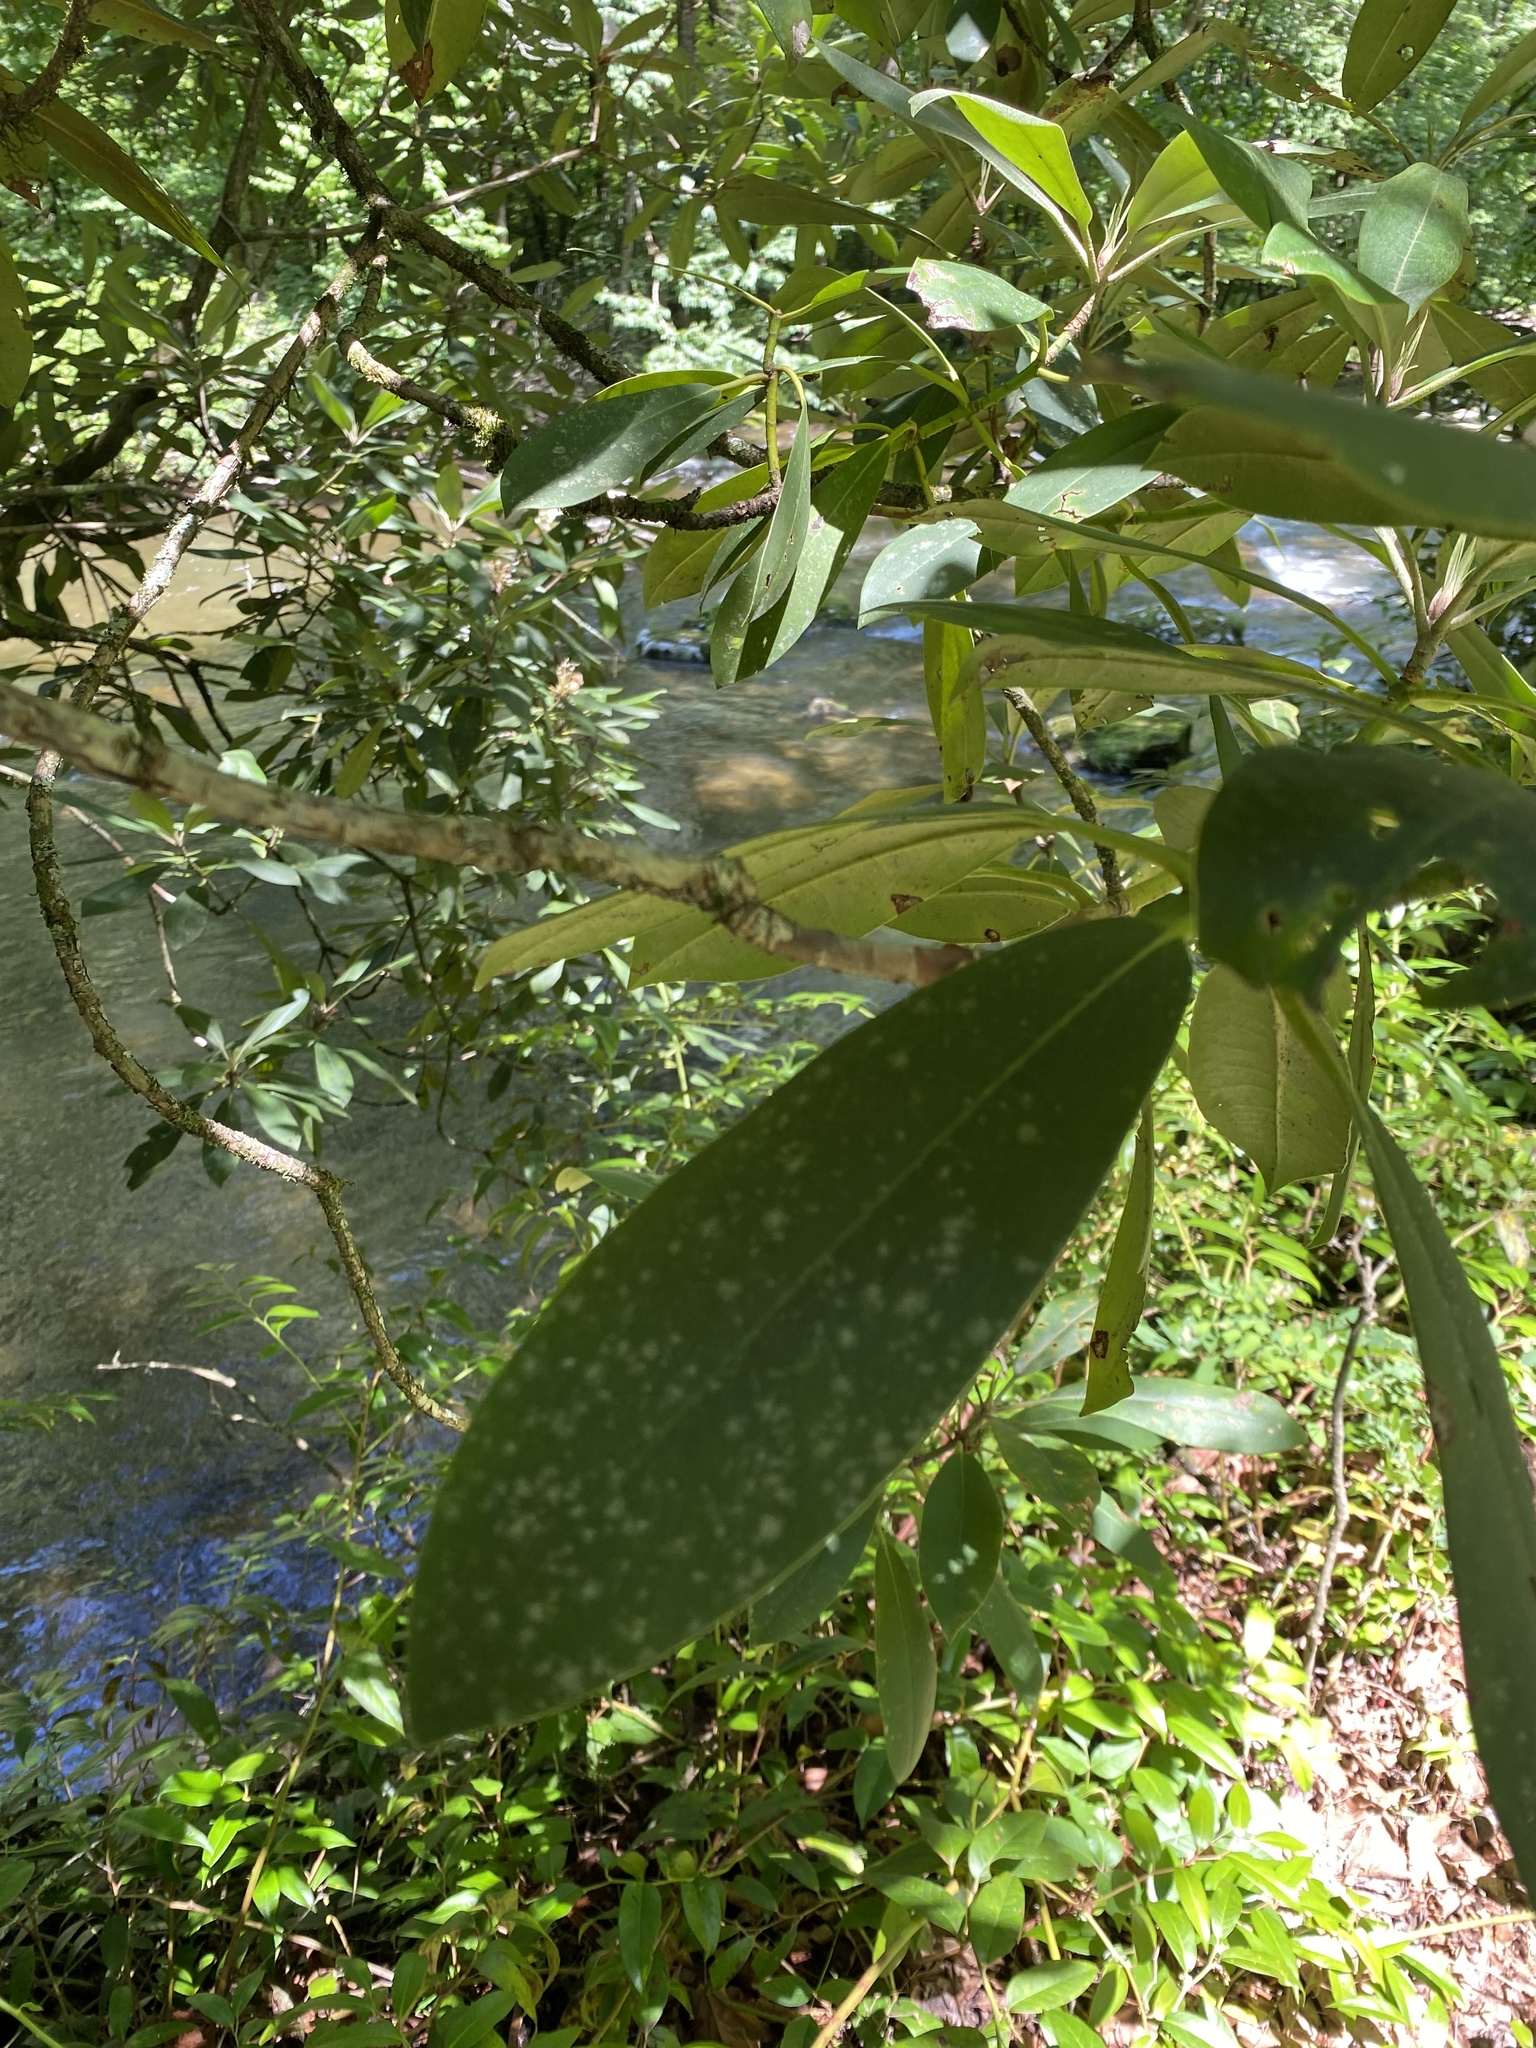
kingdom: Plantae
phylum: Tracheophyta
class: Magnoliopsida
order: Ericales
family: Ericaceae
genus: Rhododendron
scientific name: Rhododendron maximum
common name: Great rhododendron
